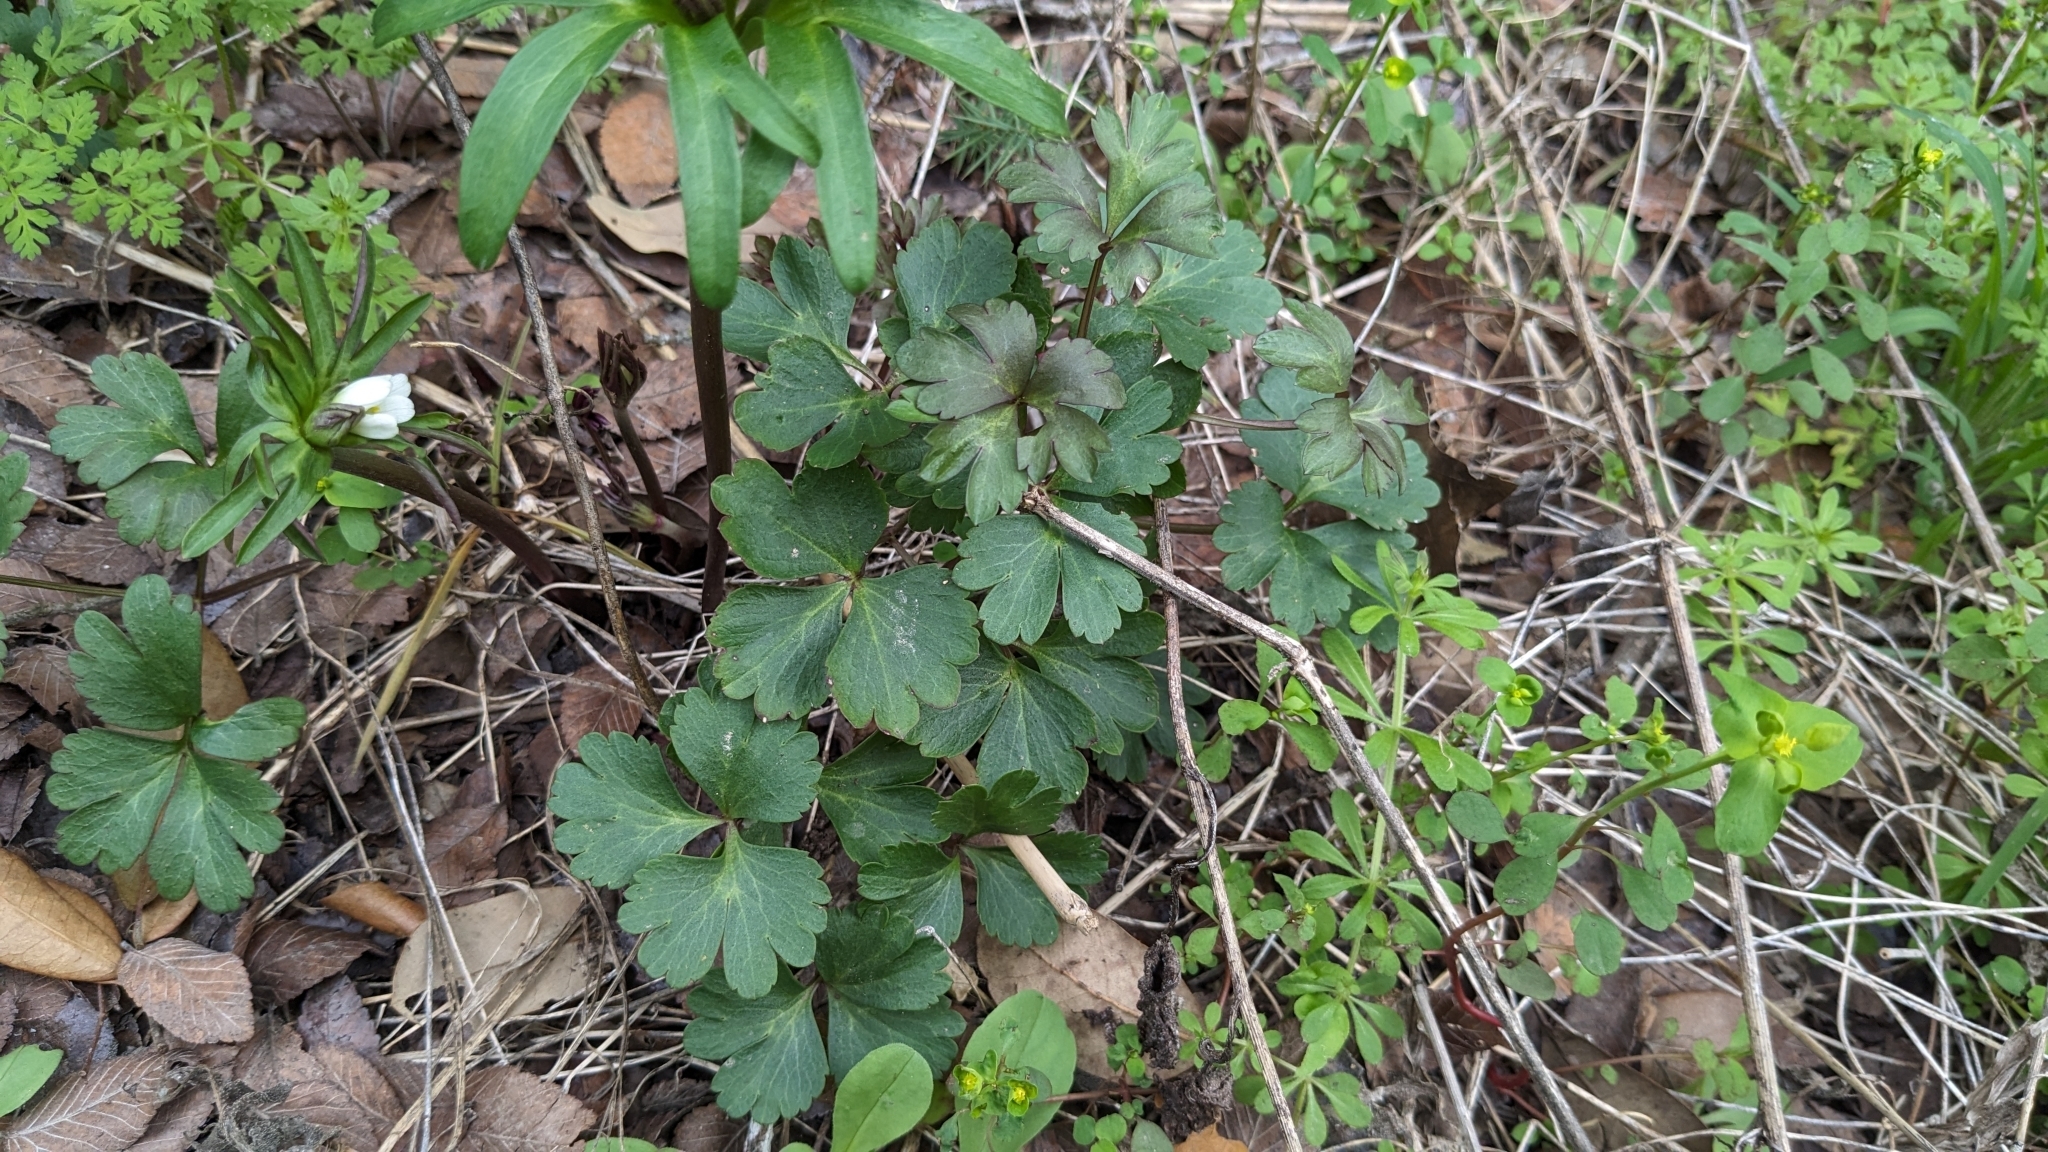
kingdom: Plantae
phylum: Tracheophyta
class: Magnoliopsida
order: Ranunculales
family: Ranunculaceae
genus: Anemone
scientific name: Anemone edwardsiana
